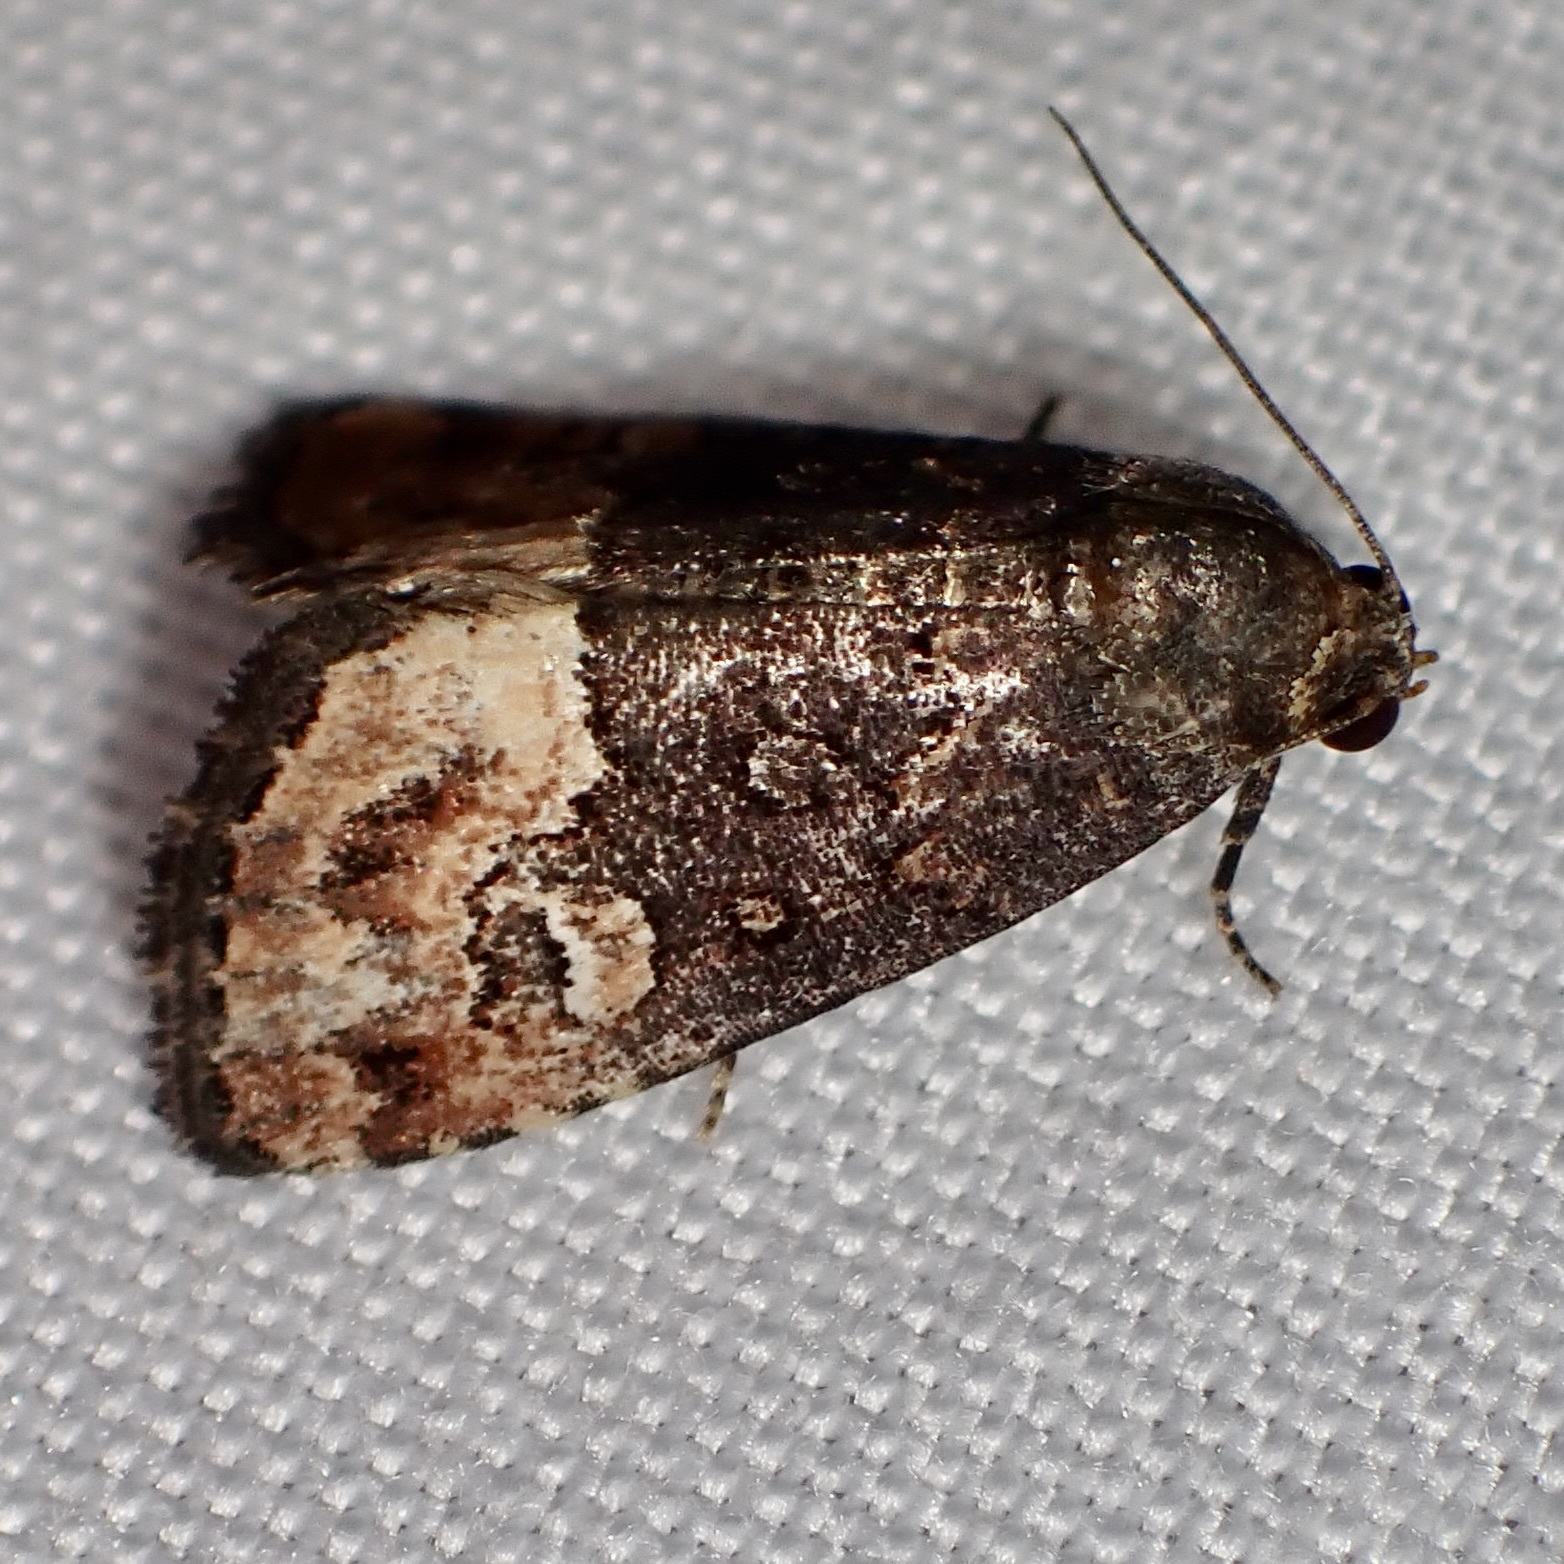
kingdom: Animalia
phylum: Arthropoda
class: Insecta
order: Lepidoptera
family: Noctuidae
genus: Ozarba
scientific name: Ozarba propera
